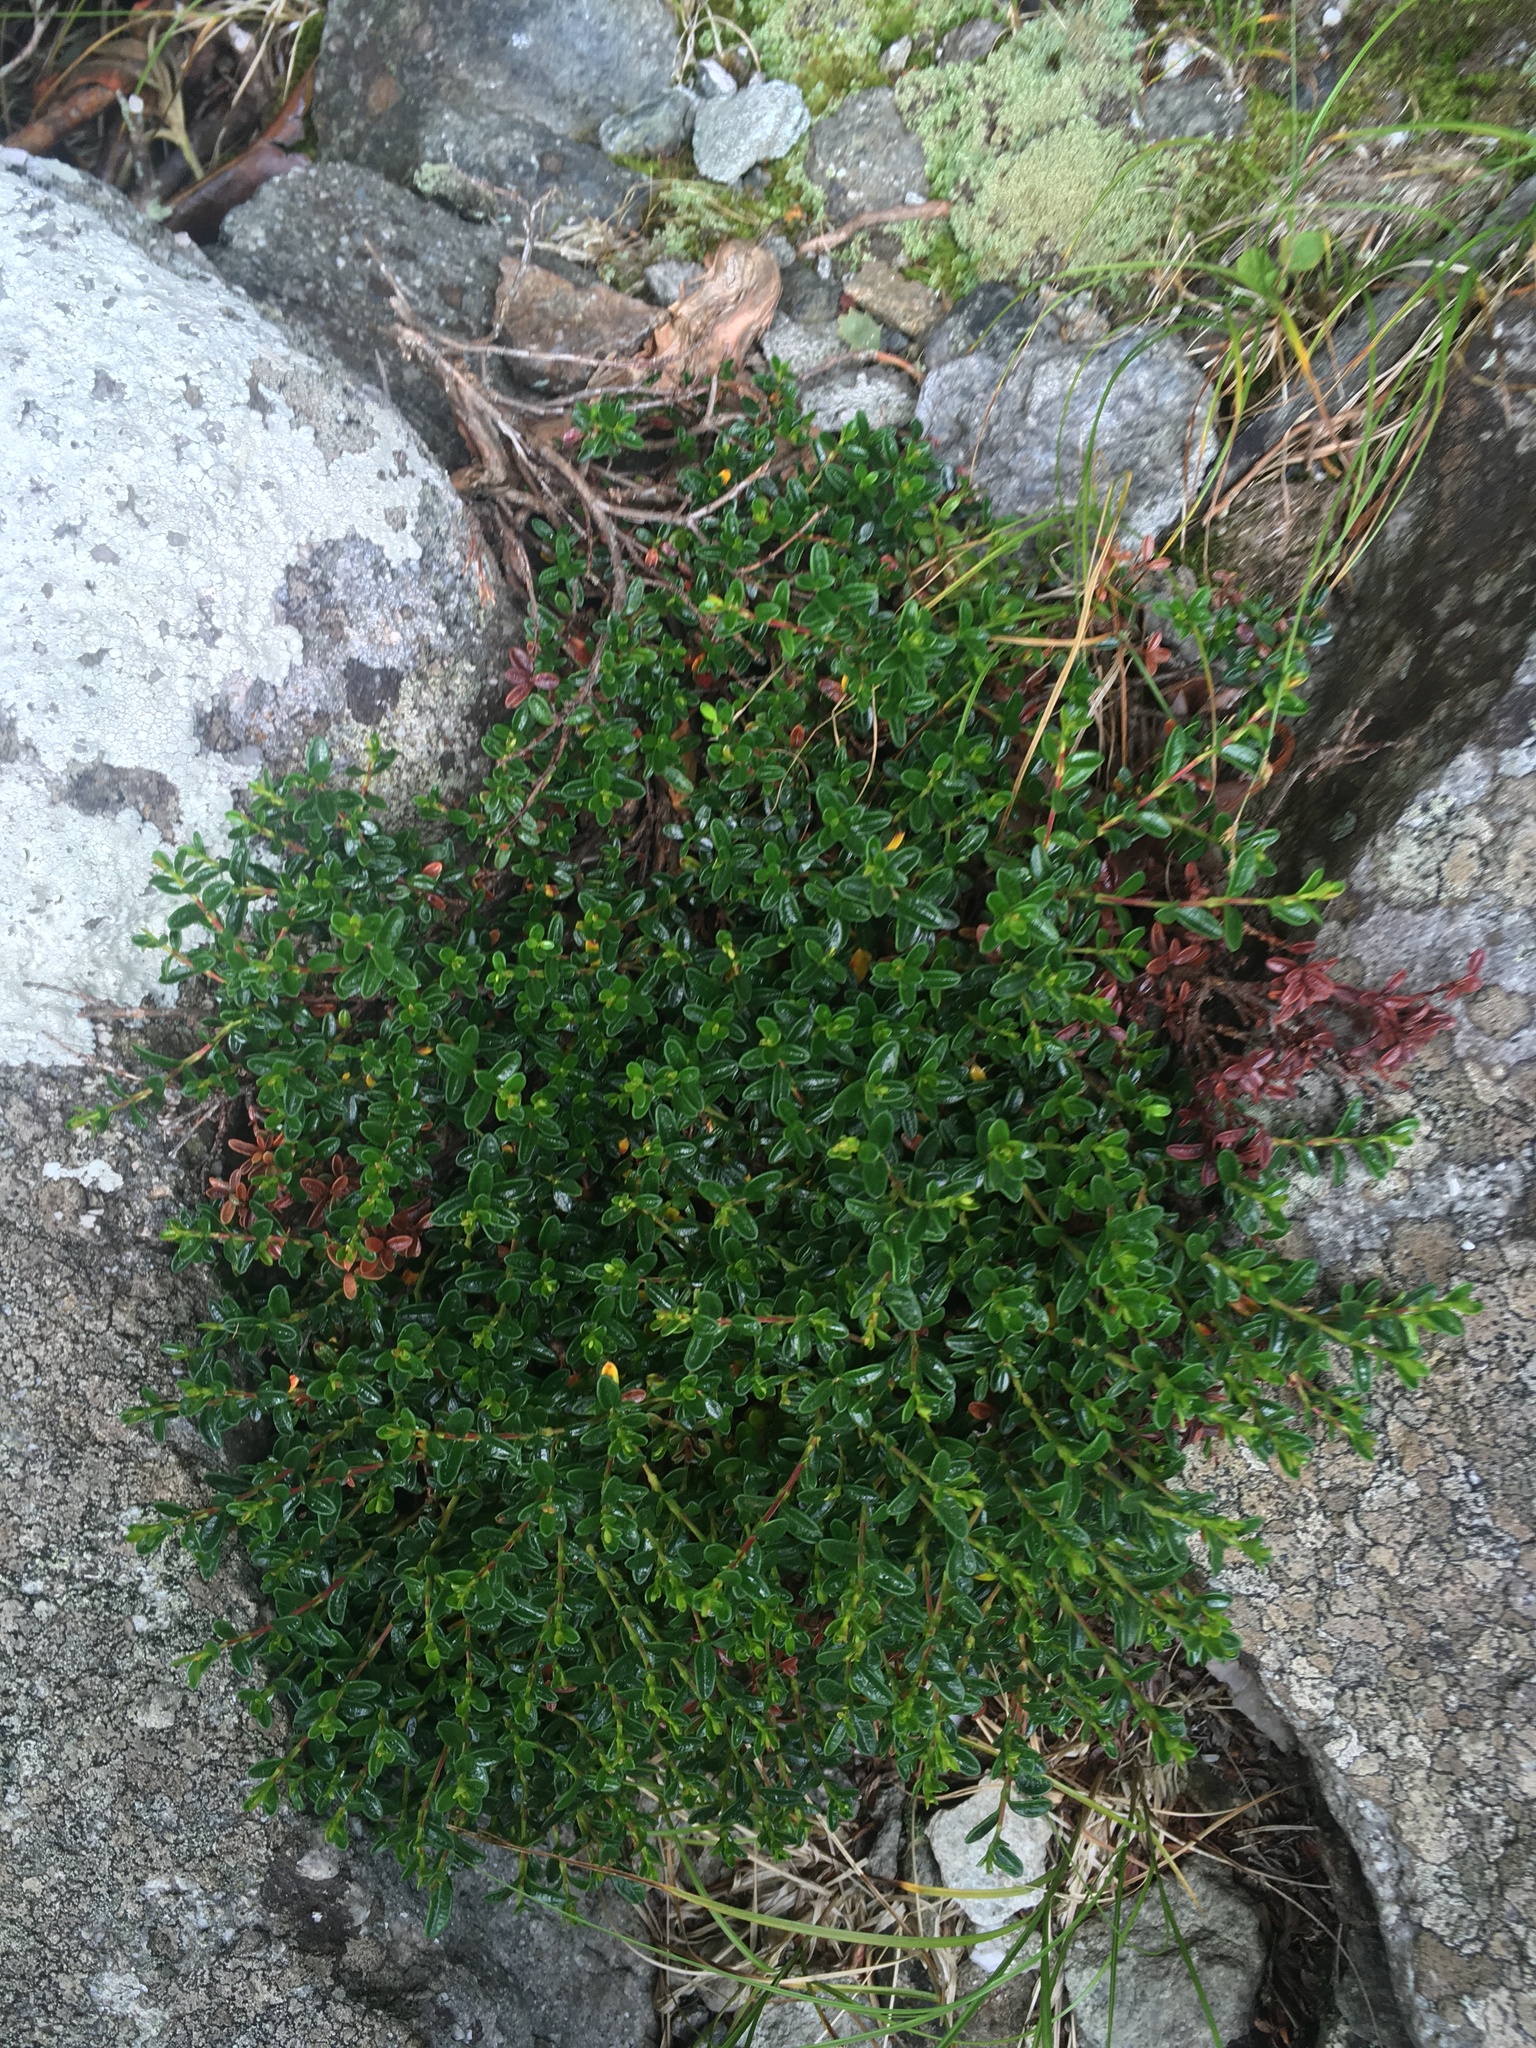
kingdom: Plantae
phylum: Tracheophyta
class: Magnoliopsida
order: Ericales
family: Ericaceae
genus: Kalmia
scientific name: Kalmia buxifolia
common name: Sandmyrtle
